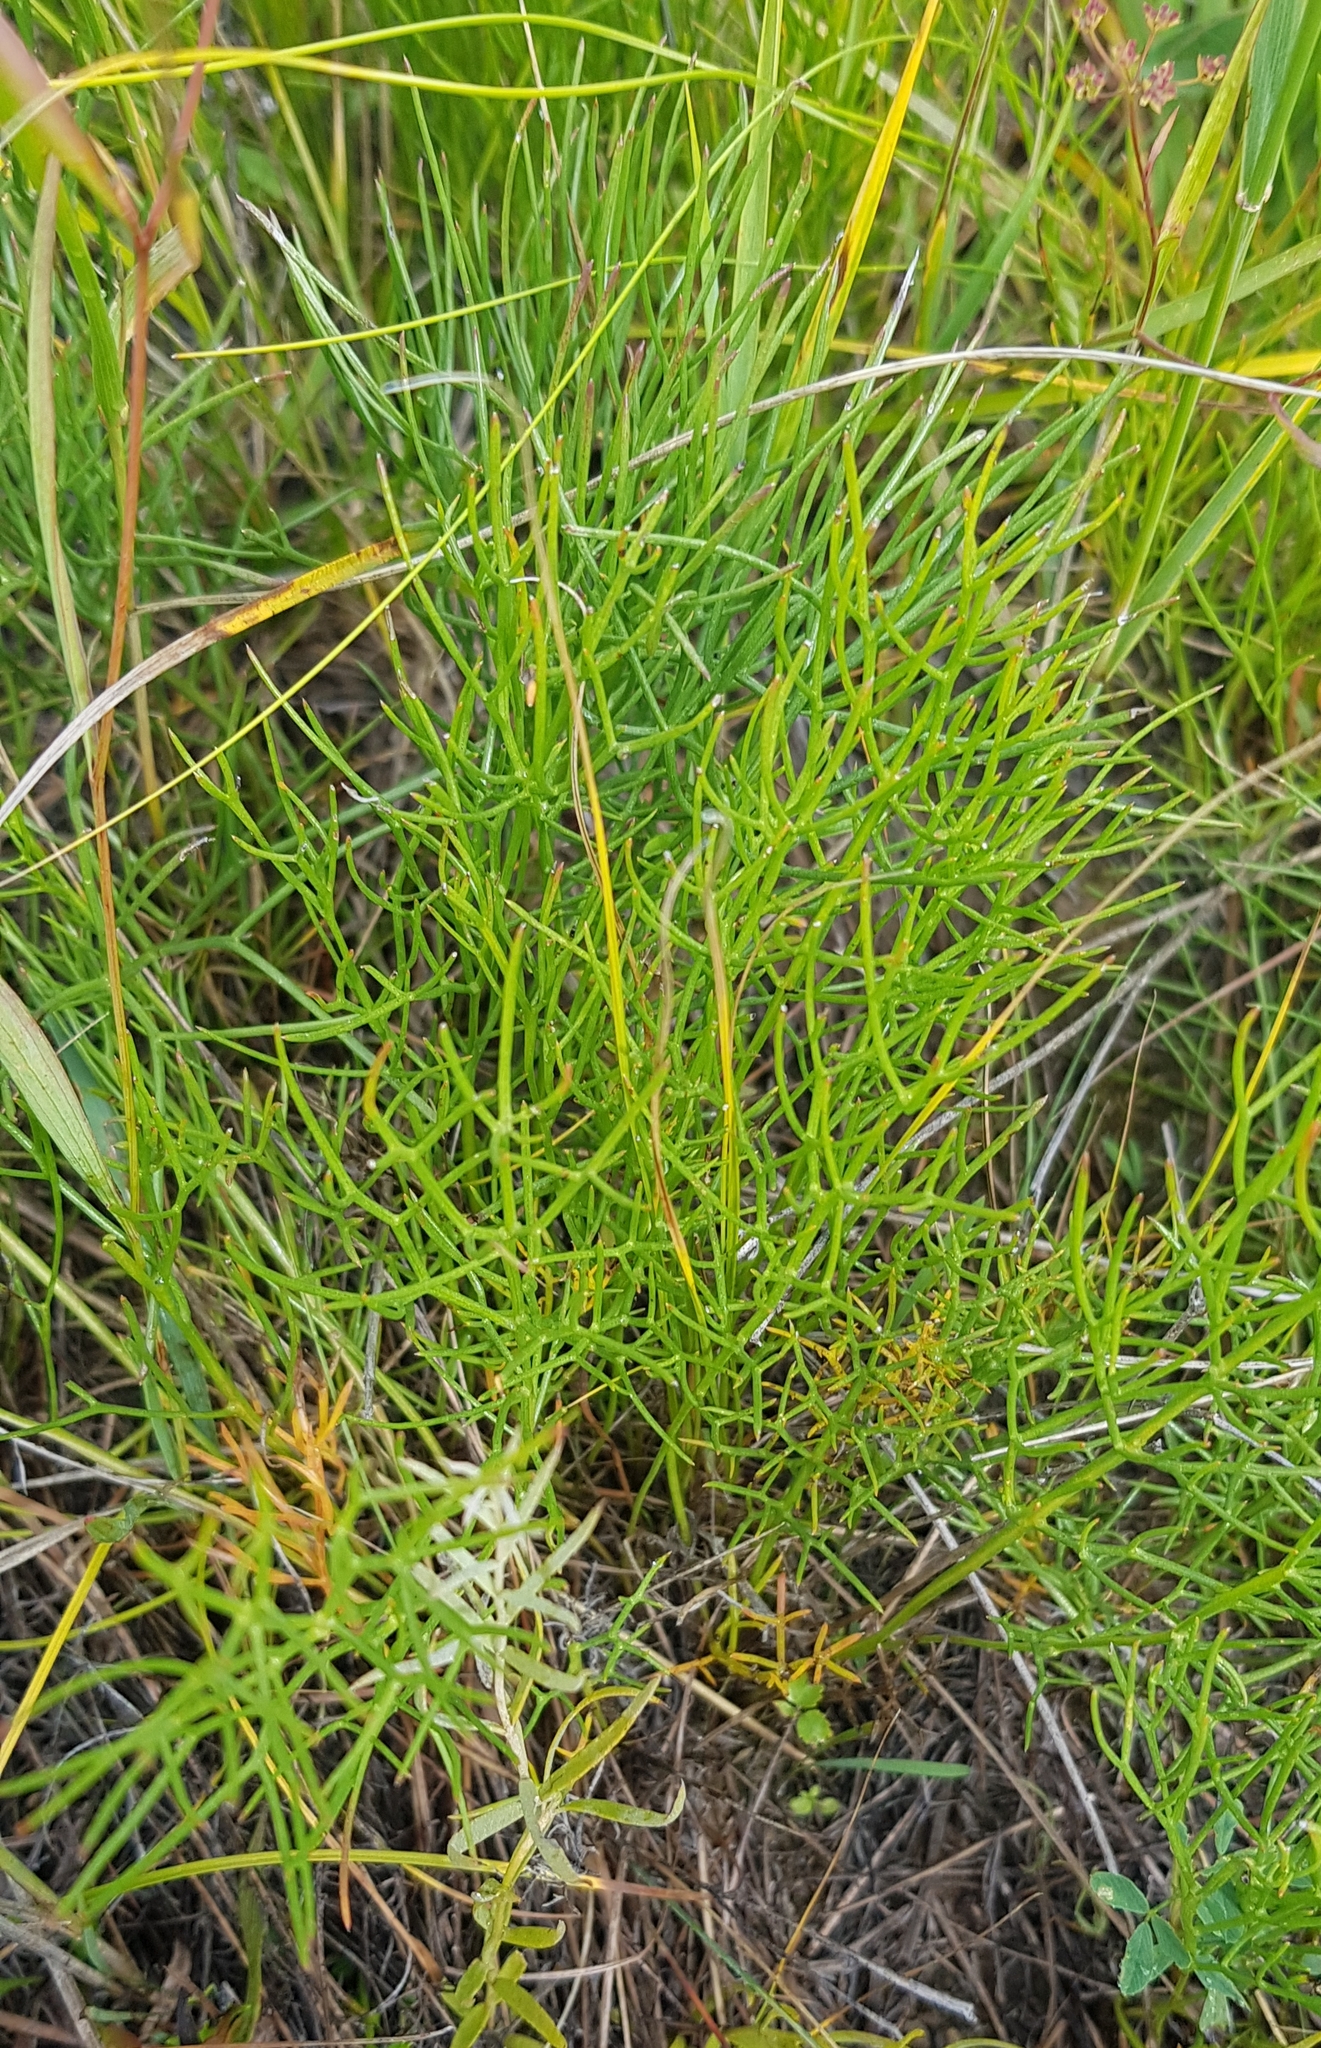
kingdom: Plantae
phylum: Tracheophyta
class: Magnoliopsida
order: Fabales
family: Fabaceae
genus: Thermopsis
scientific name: Thermopsis dahurica
